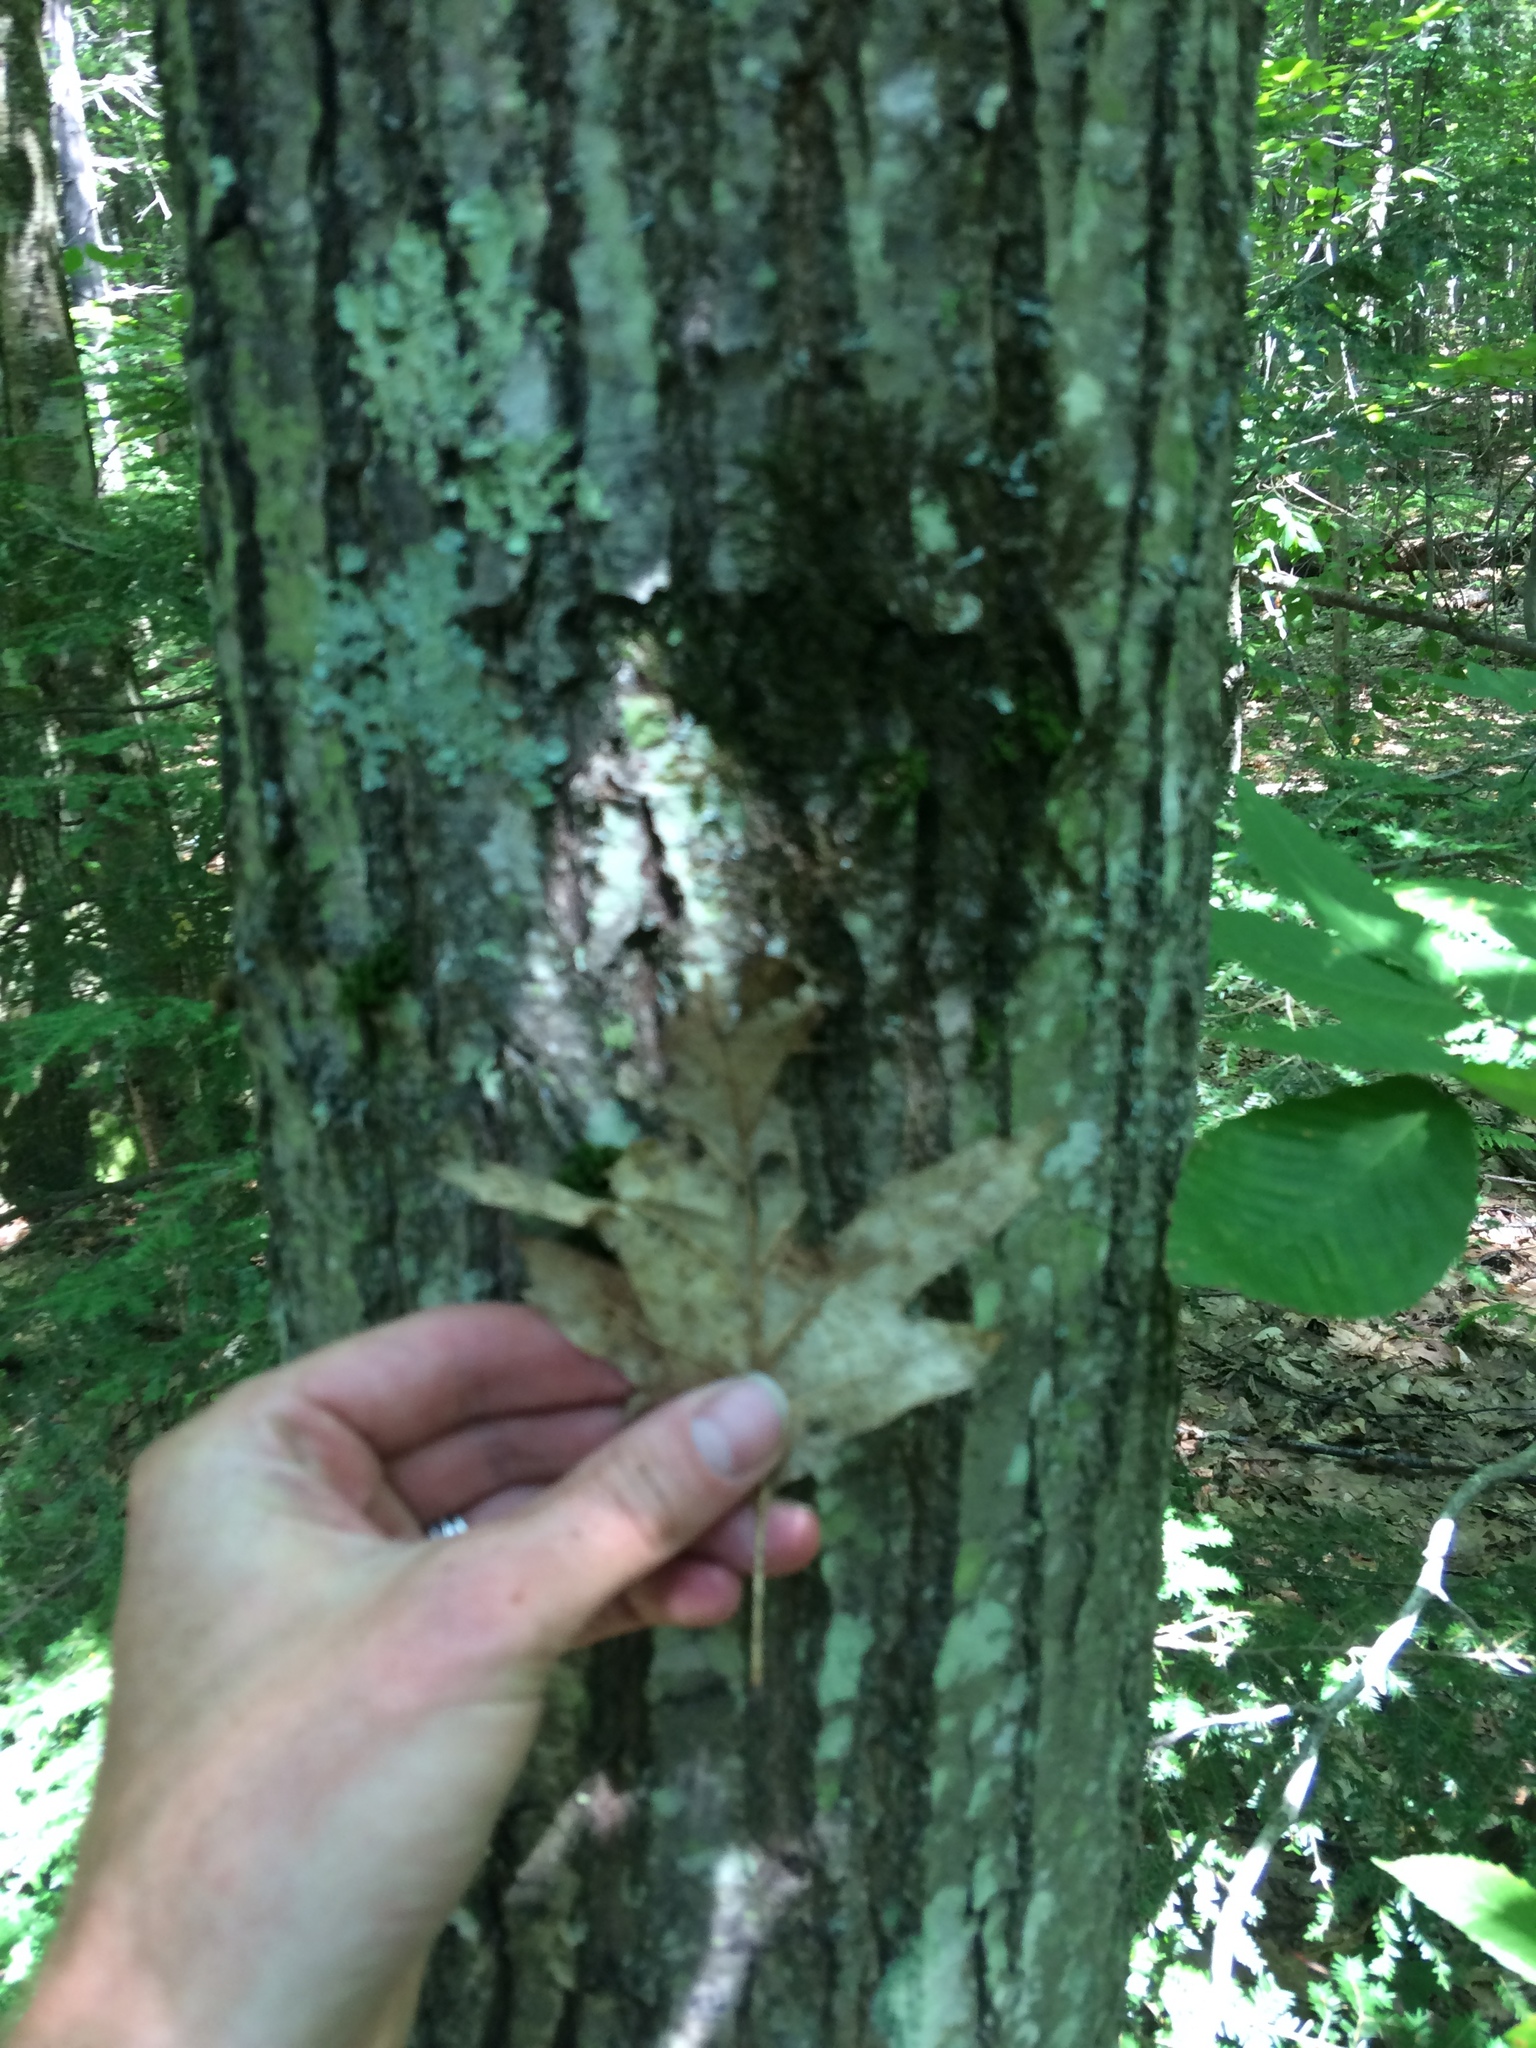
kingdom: Plantae
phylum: Tracheophyta
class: Magnoliopsida
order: Fagales
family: Fagaceae
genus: Quercus
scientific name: Quercus rubra
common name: Red oak
